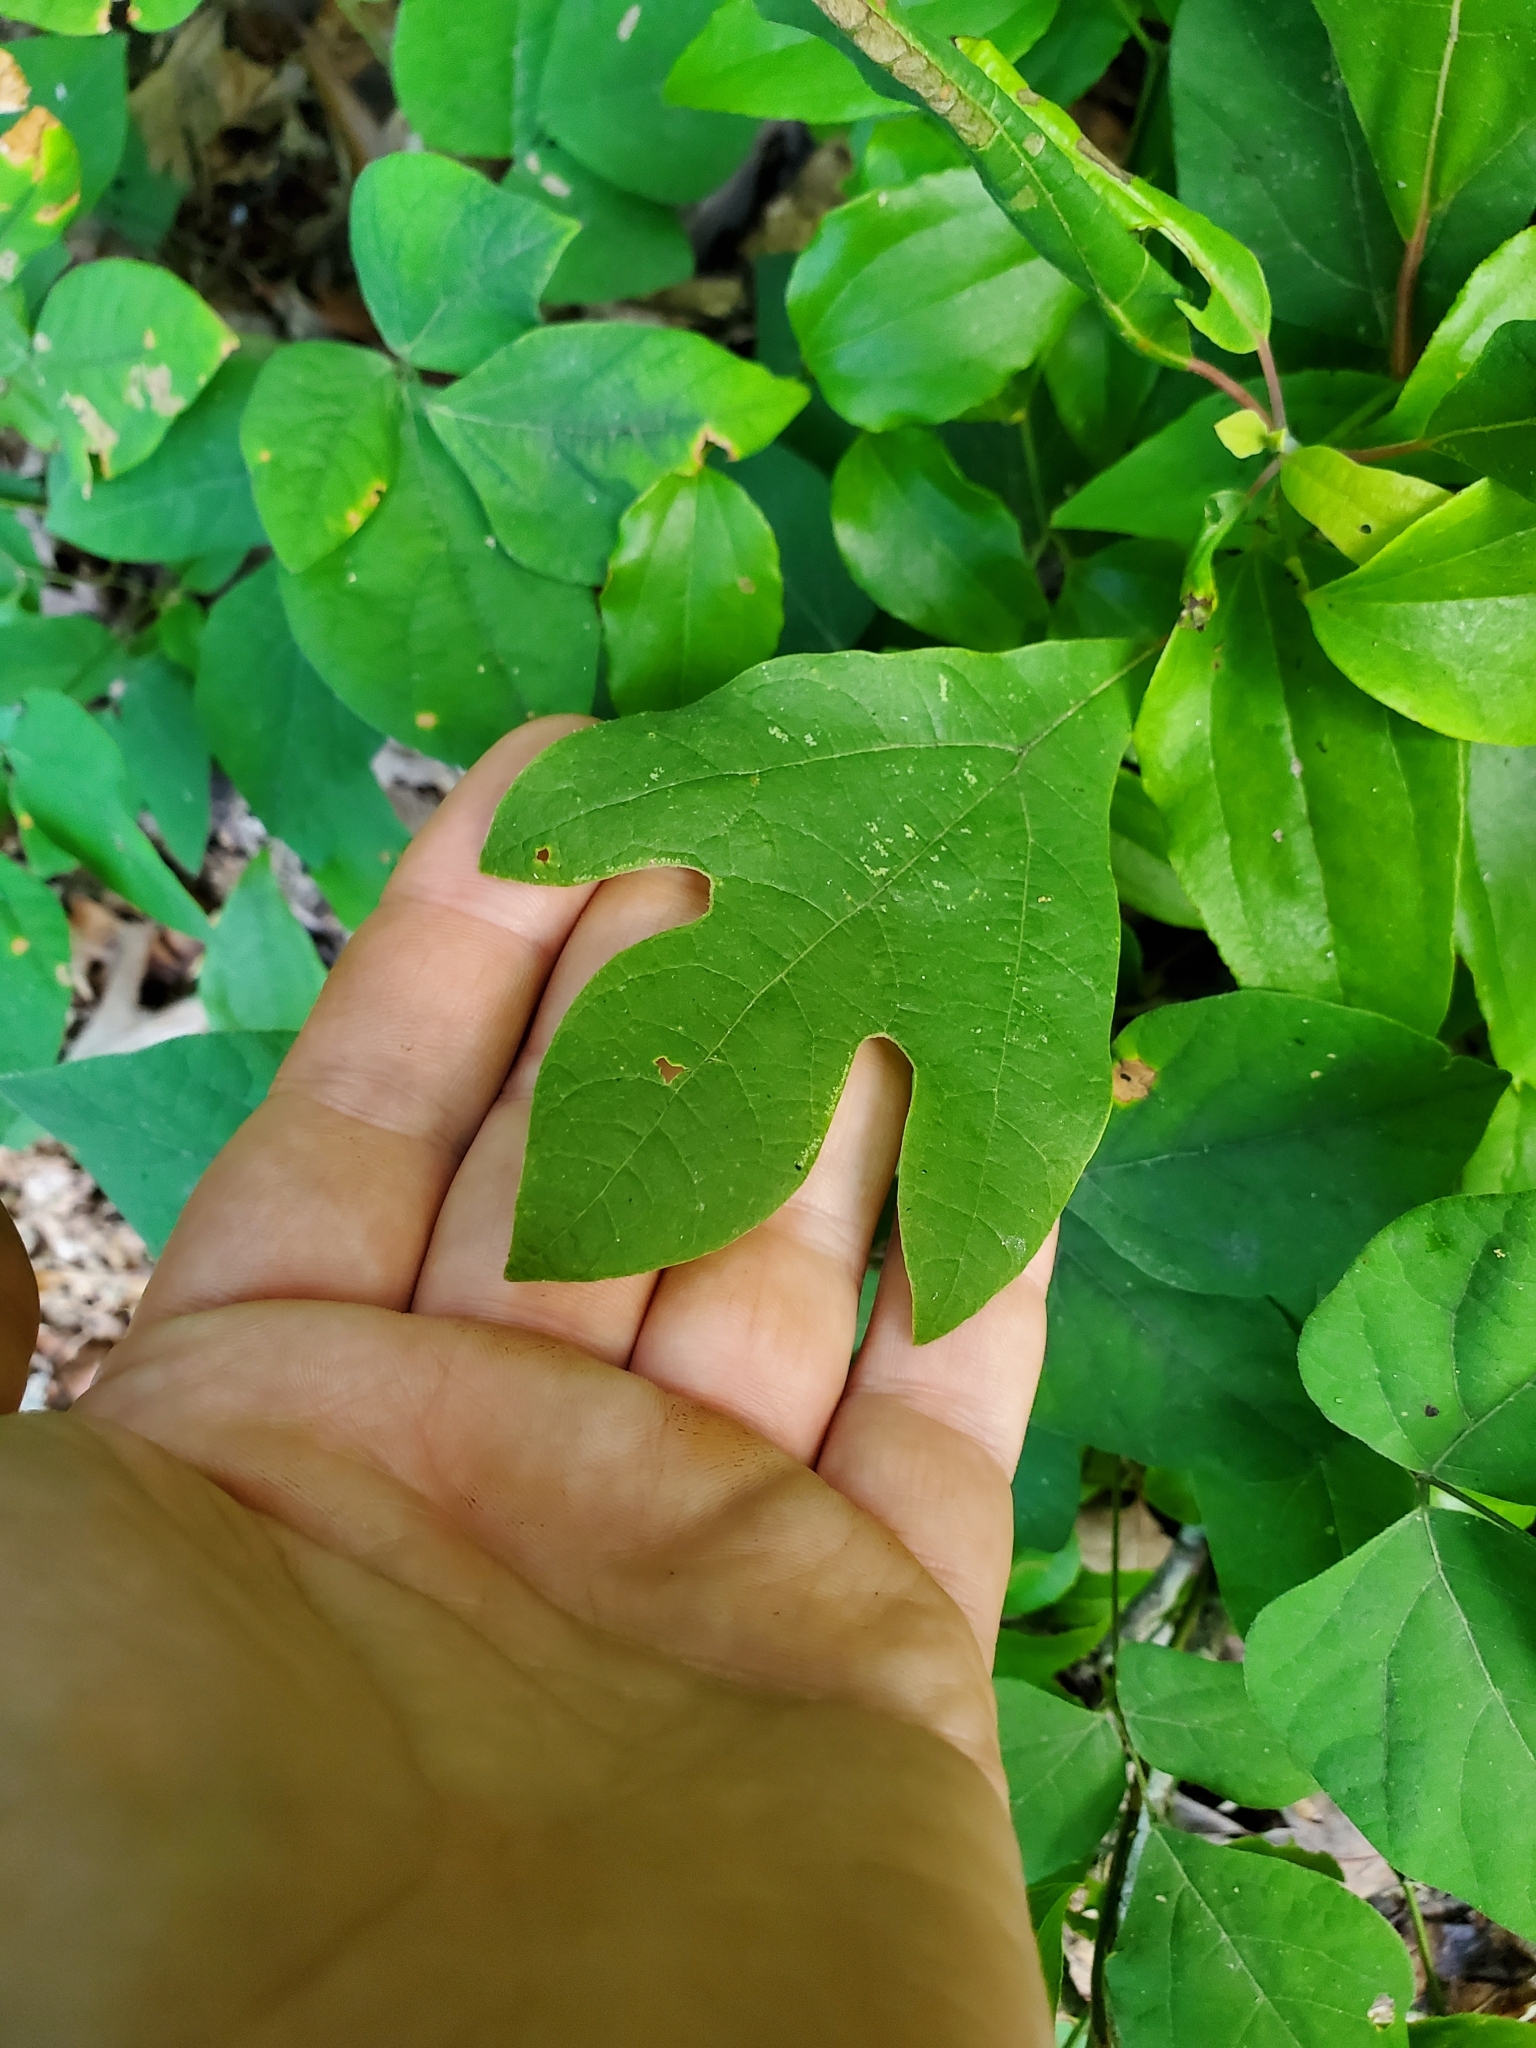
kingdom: Plantae
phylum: Tracheophyta
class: Magnoliopsida
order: Laurales
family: Lauraceae
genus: Sassafras
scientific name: Sassafras albidum
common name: Sassafras
